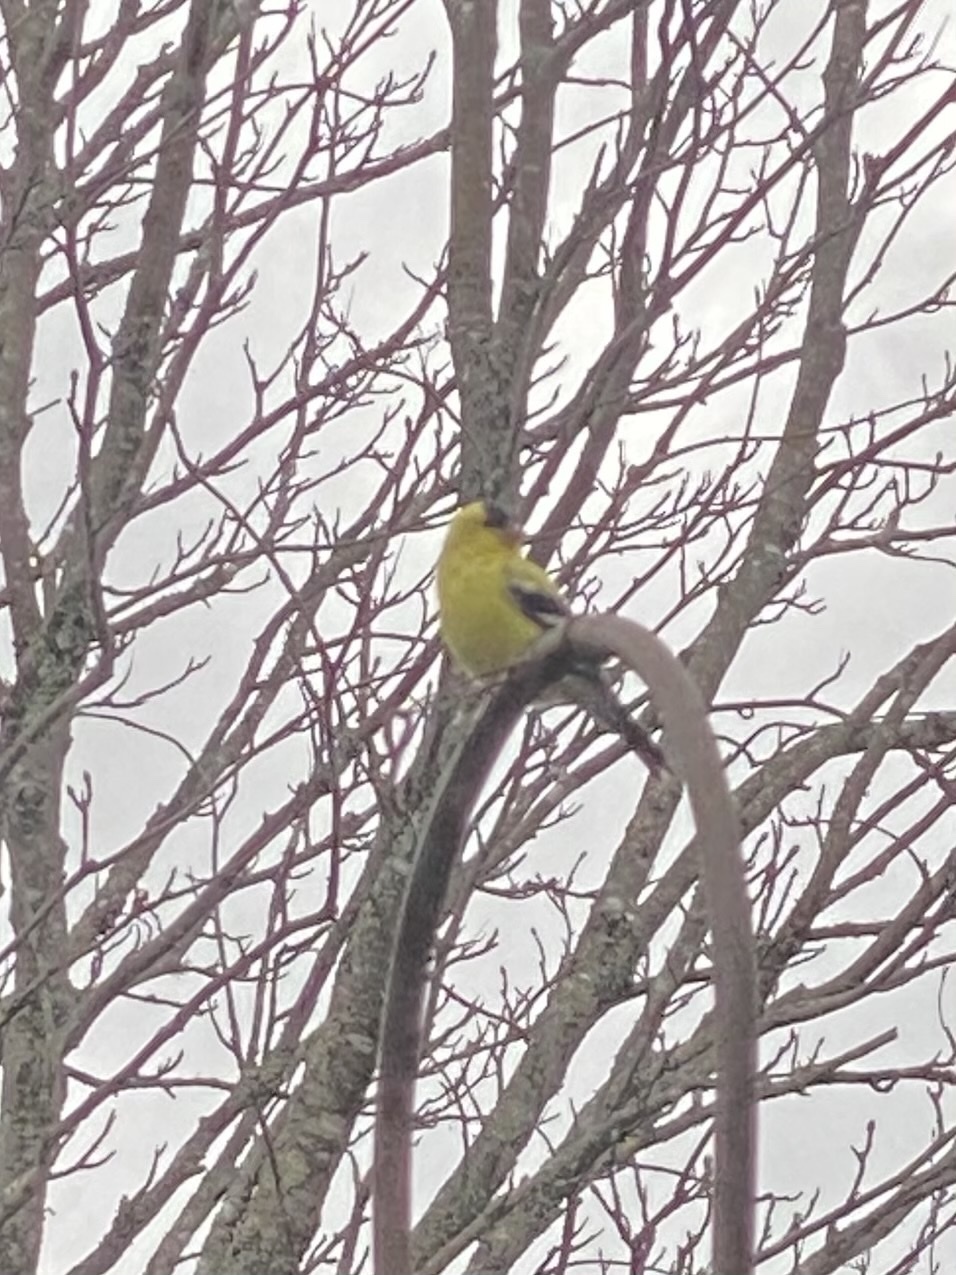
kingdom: Animalia
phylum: Chordata
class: Aves
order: Passeriformes
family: Fringillidae
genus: Spinus
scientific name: Spinus tristis
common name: American goldfinch
